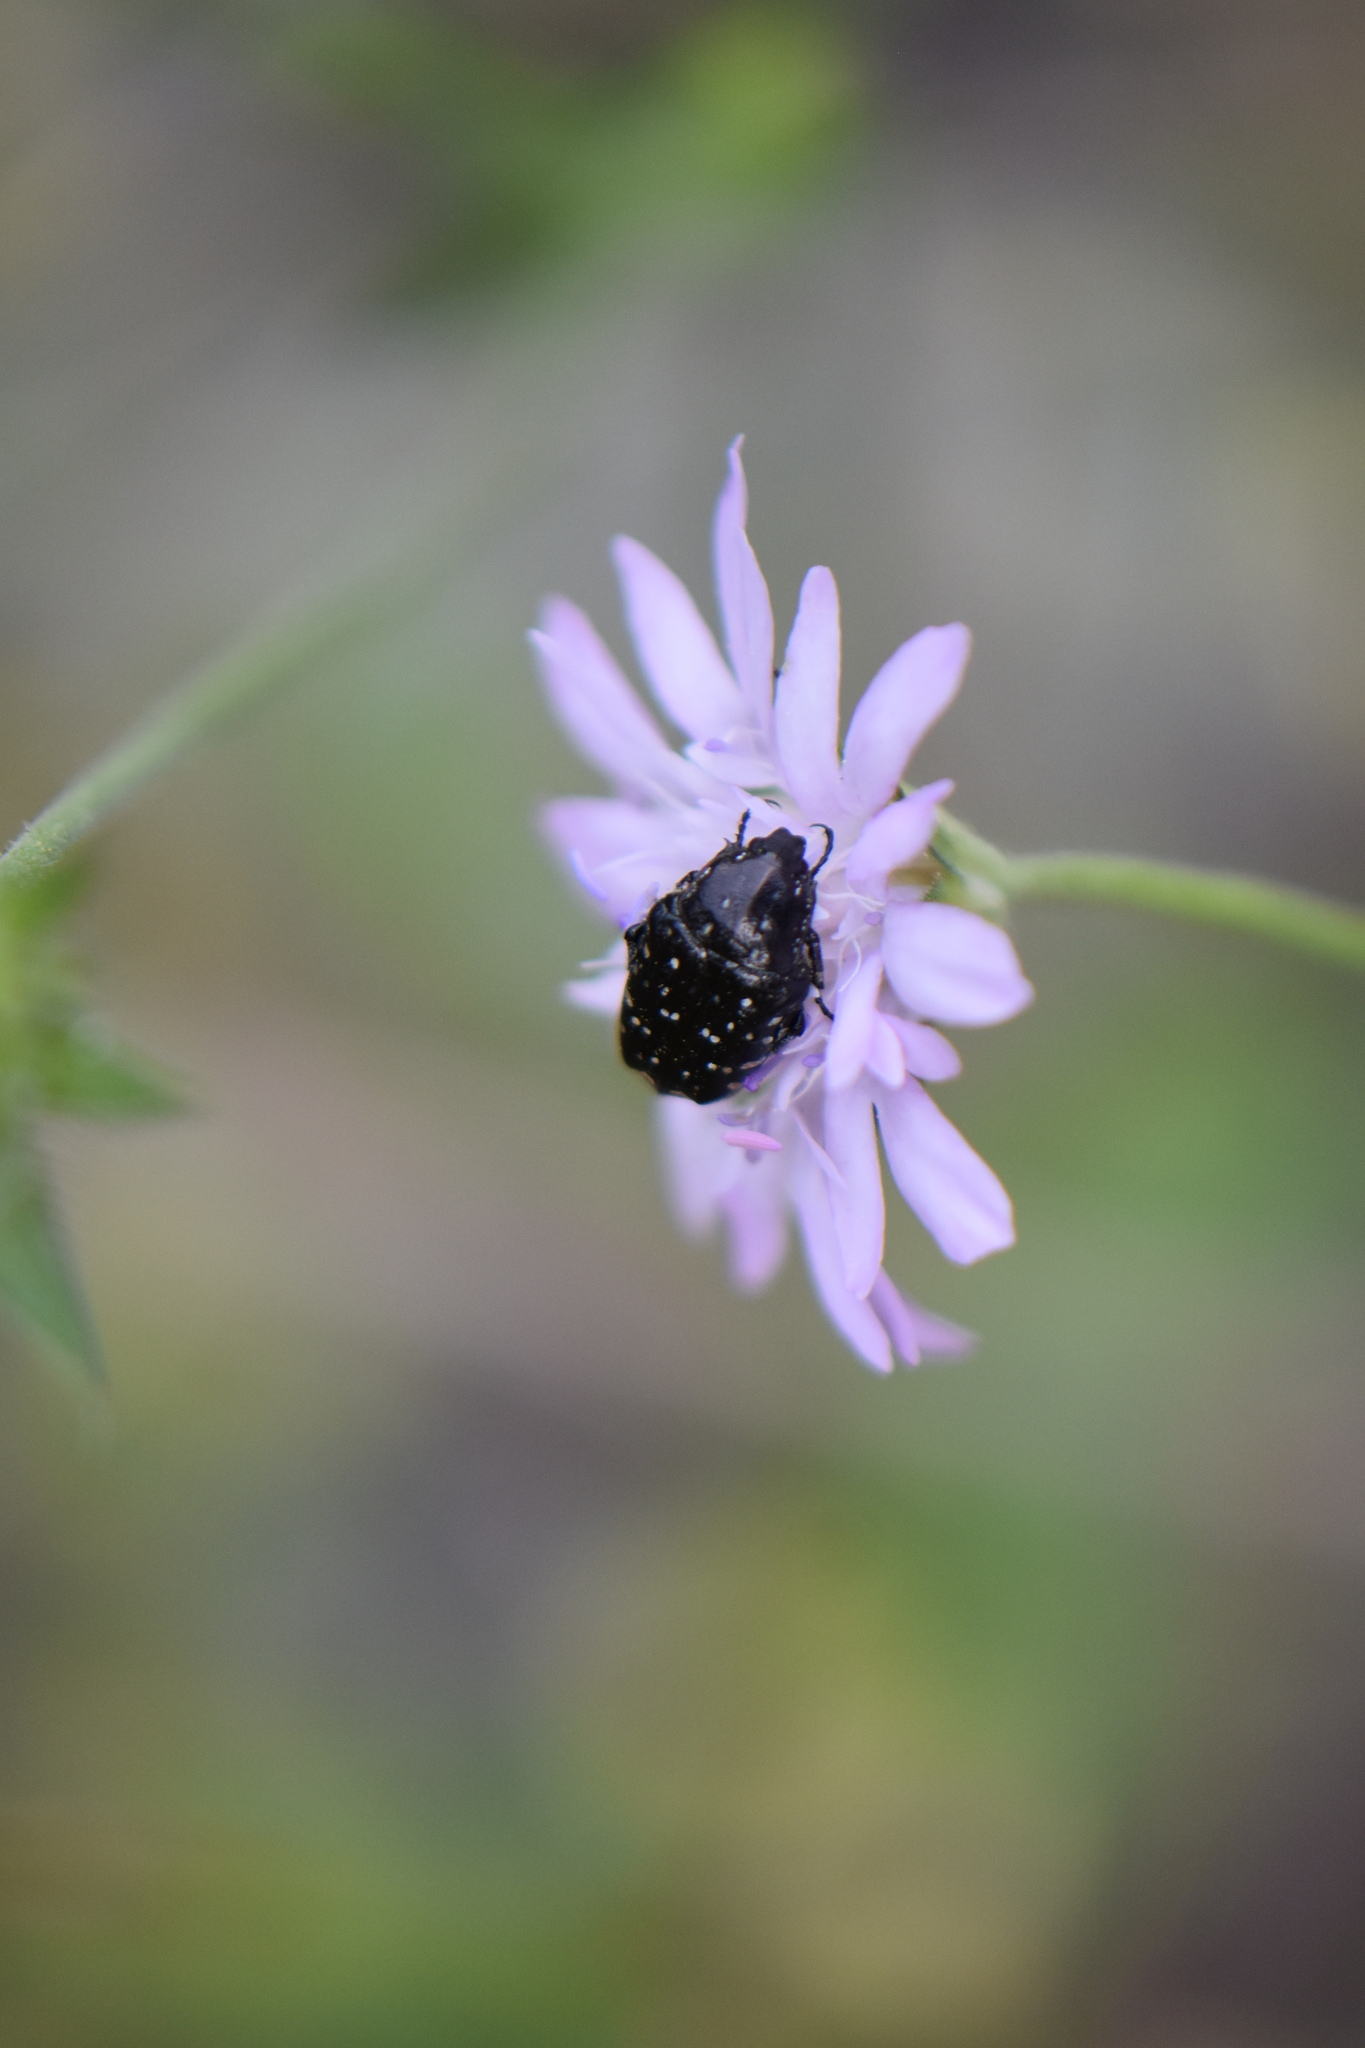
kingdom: Animalia
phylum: Arthropoda
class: Insecta
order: Coleoptera
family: Scarabaeidae
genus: Oxythyrea
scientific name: Oxythyrea funesta
